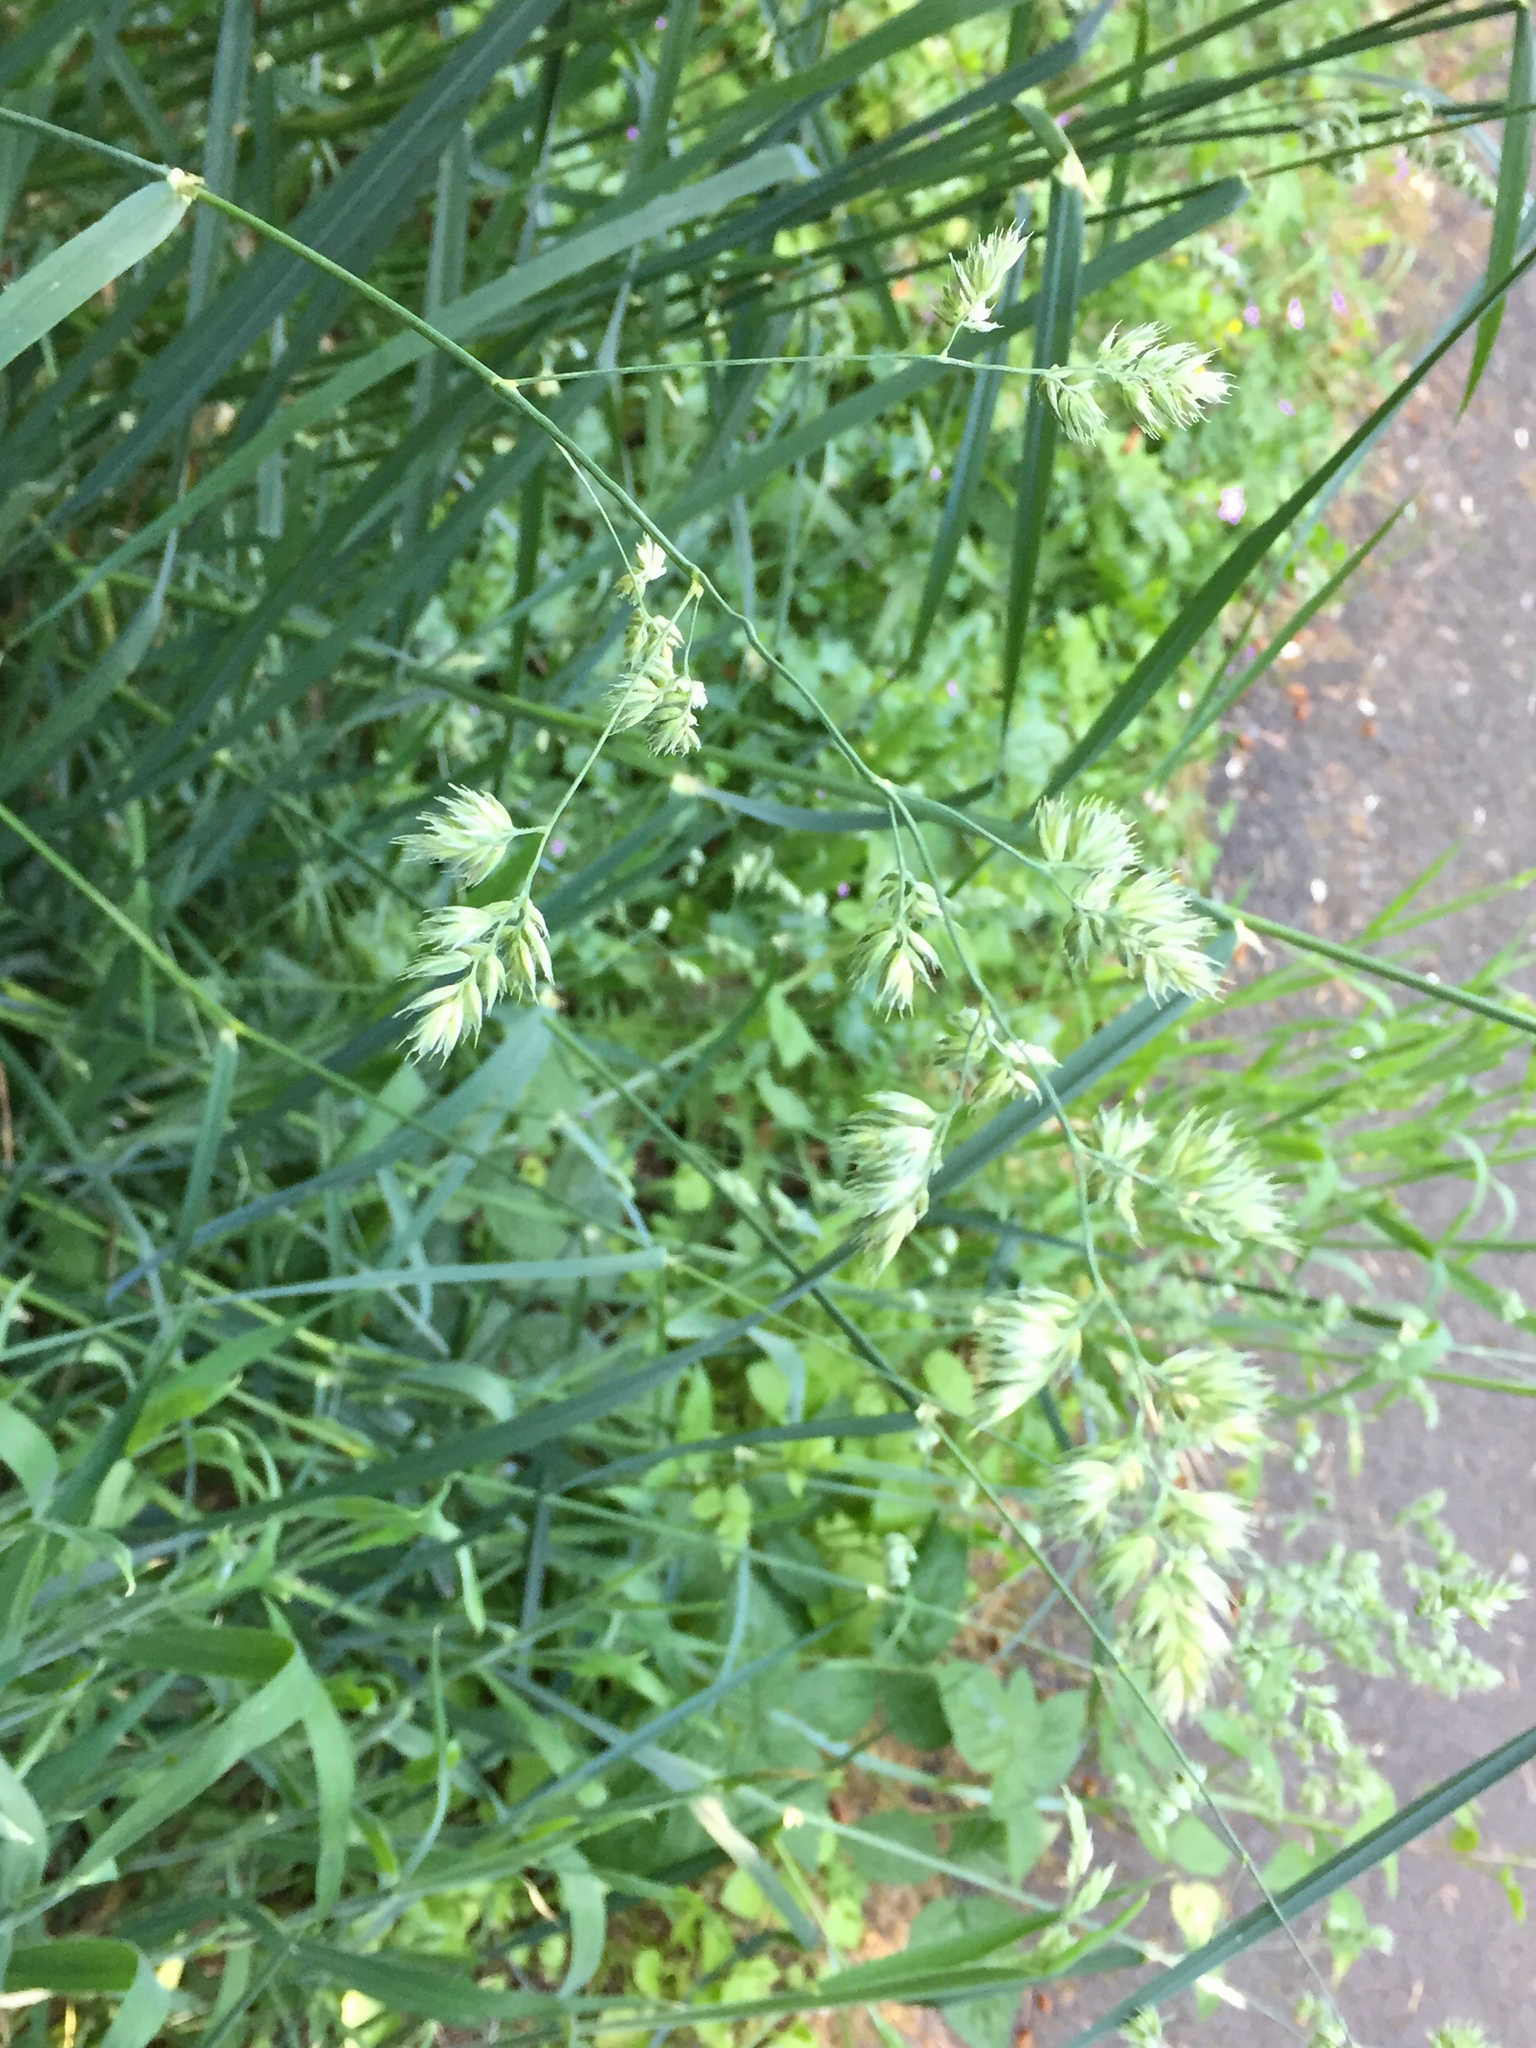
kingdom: Plantae
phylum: Tracheophyta
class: Liliopsida
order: Poales
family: Poaceae
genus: Dactylis
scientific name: Dactylis glomerata
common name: Orchardgrass
